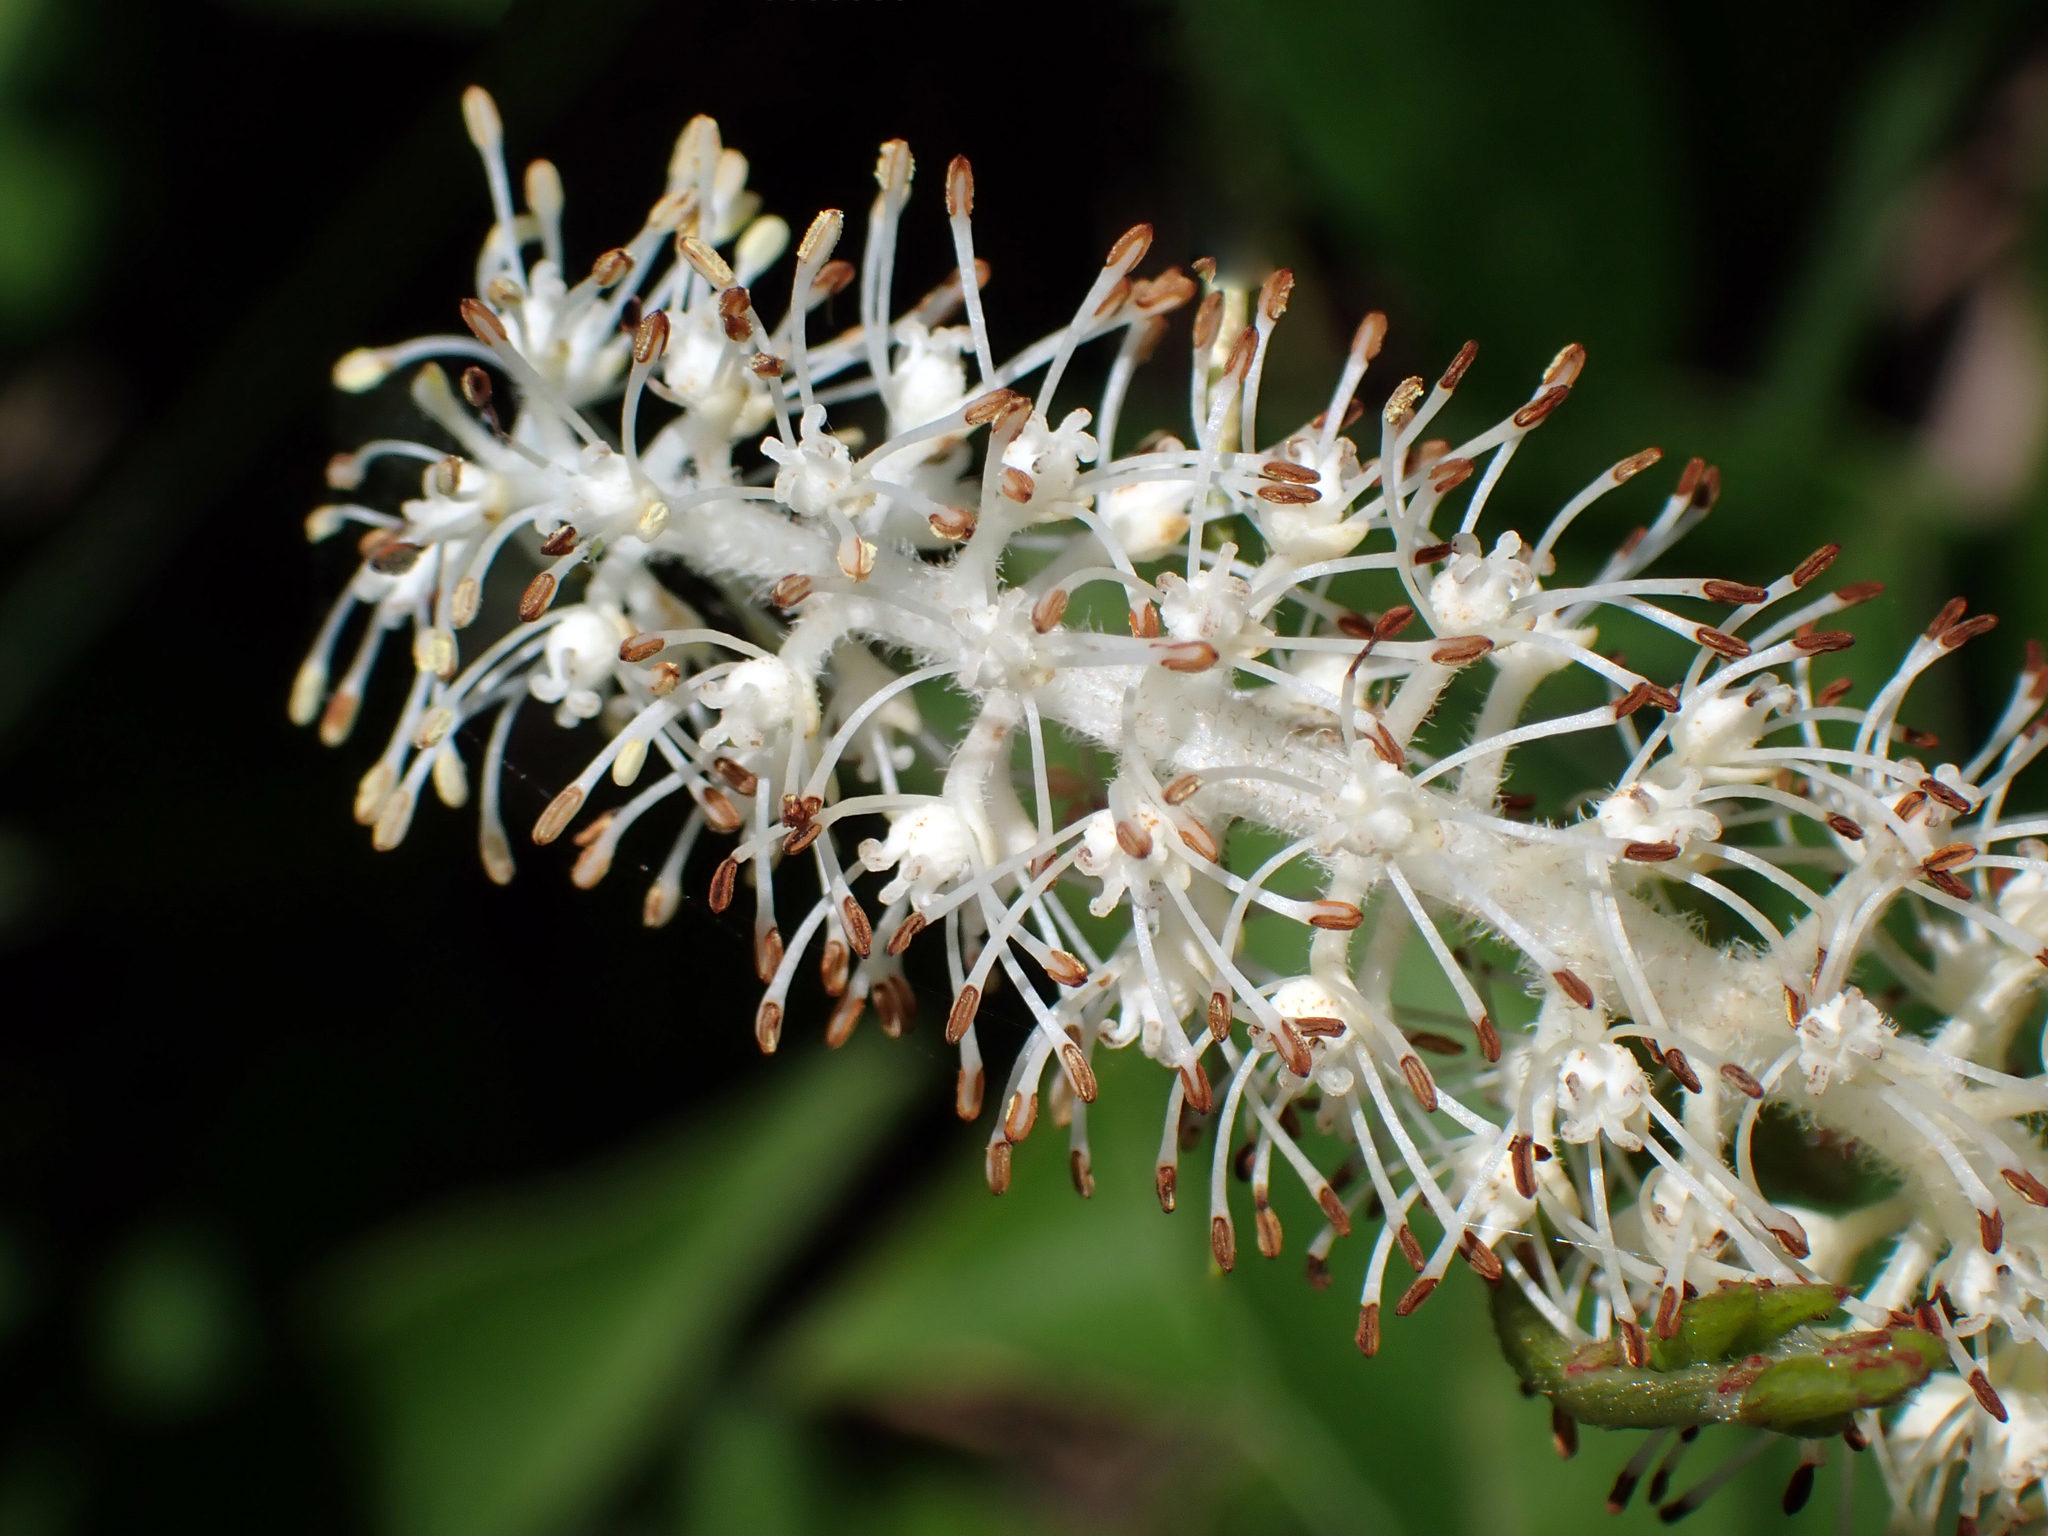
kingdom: Plantae
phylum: Tracheophyta
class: Magnoliopsida
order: Piperales
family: Saururaceae
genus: Saururus
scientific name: Saururus cernuus
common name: Lizard's-tail
